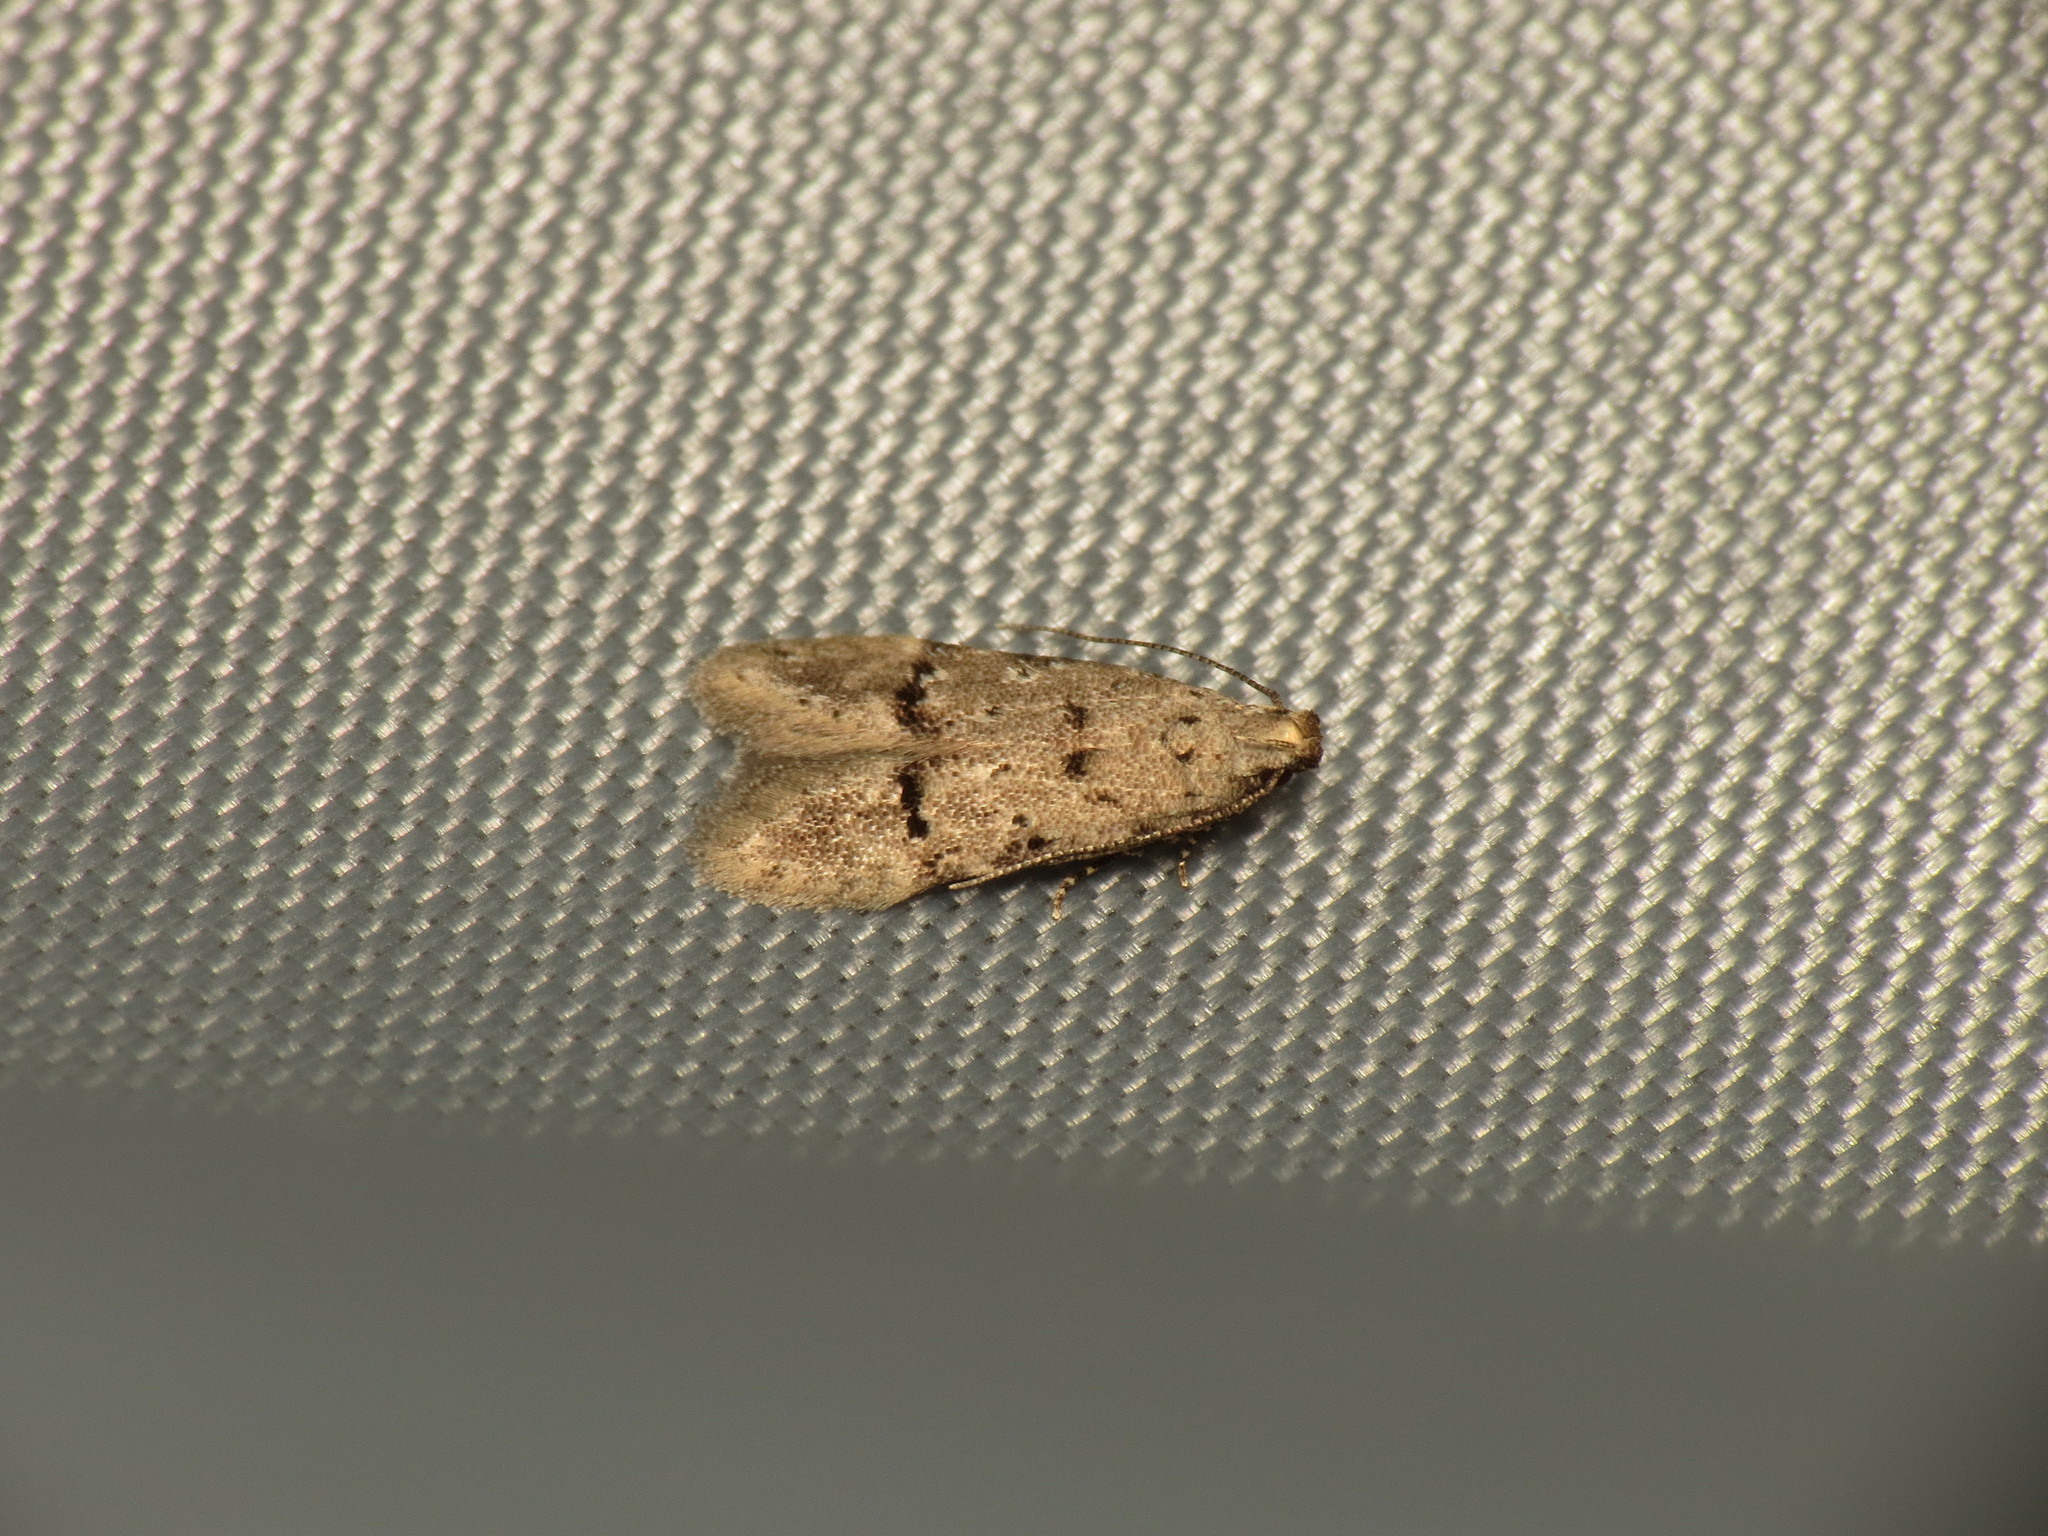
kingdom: Animalia
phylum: Arthropoda
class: Insecta
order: Lepidoptera
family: Gelechiidae
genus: Teleiodes
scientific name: Teleiodes vulgella
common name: Common groundling
